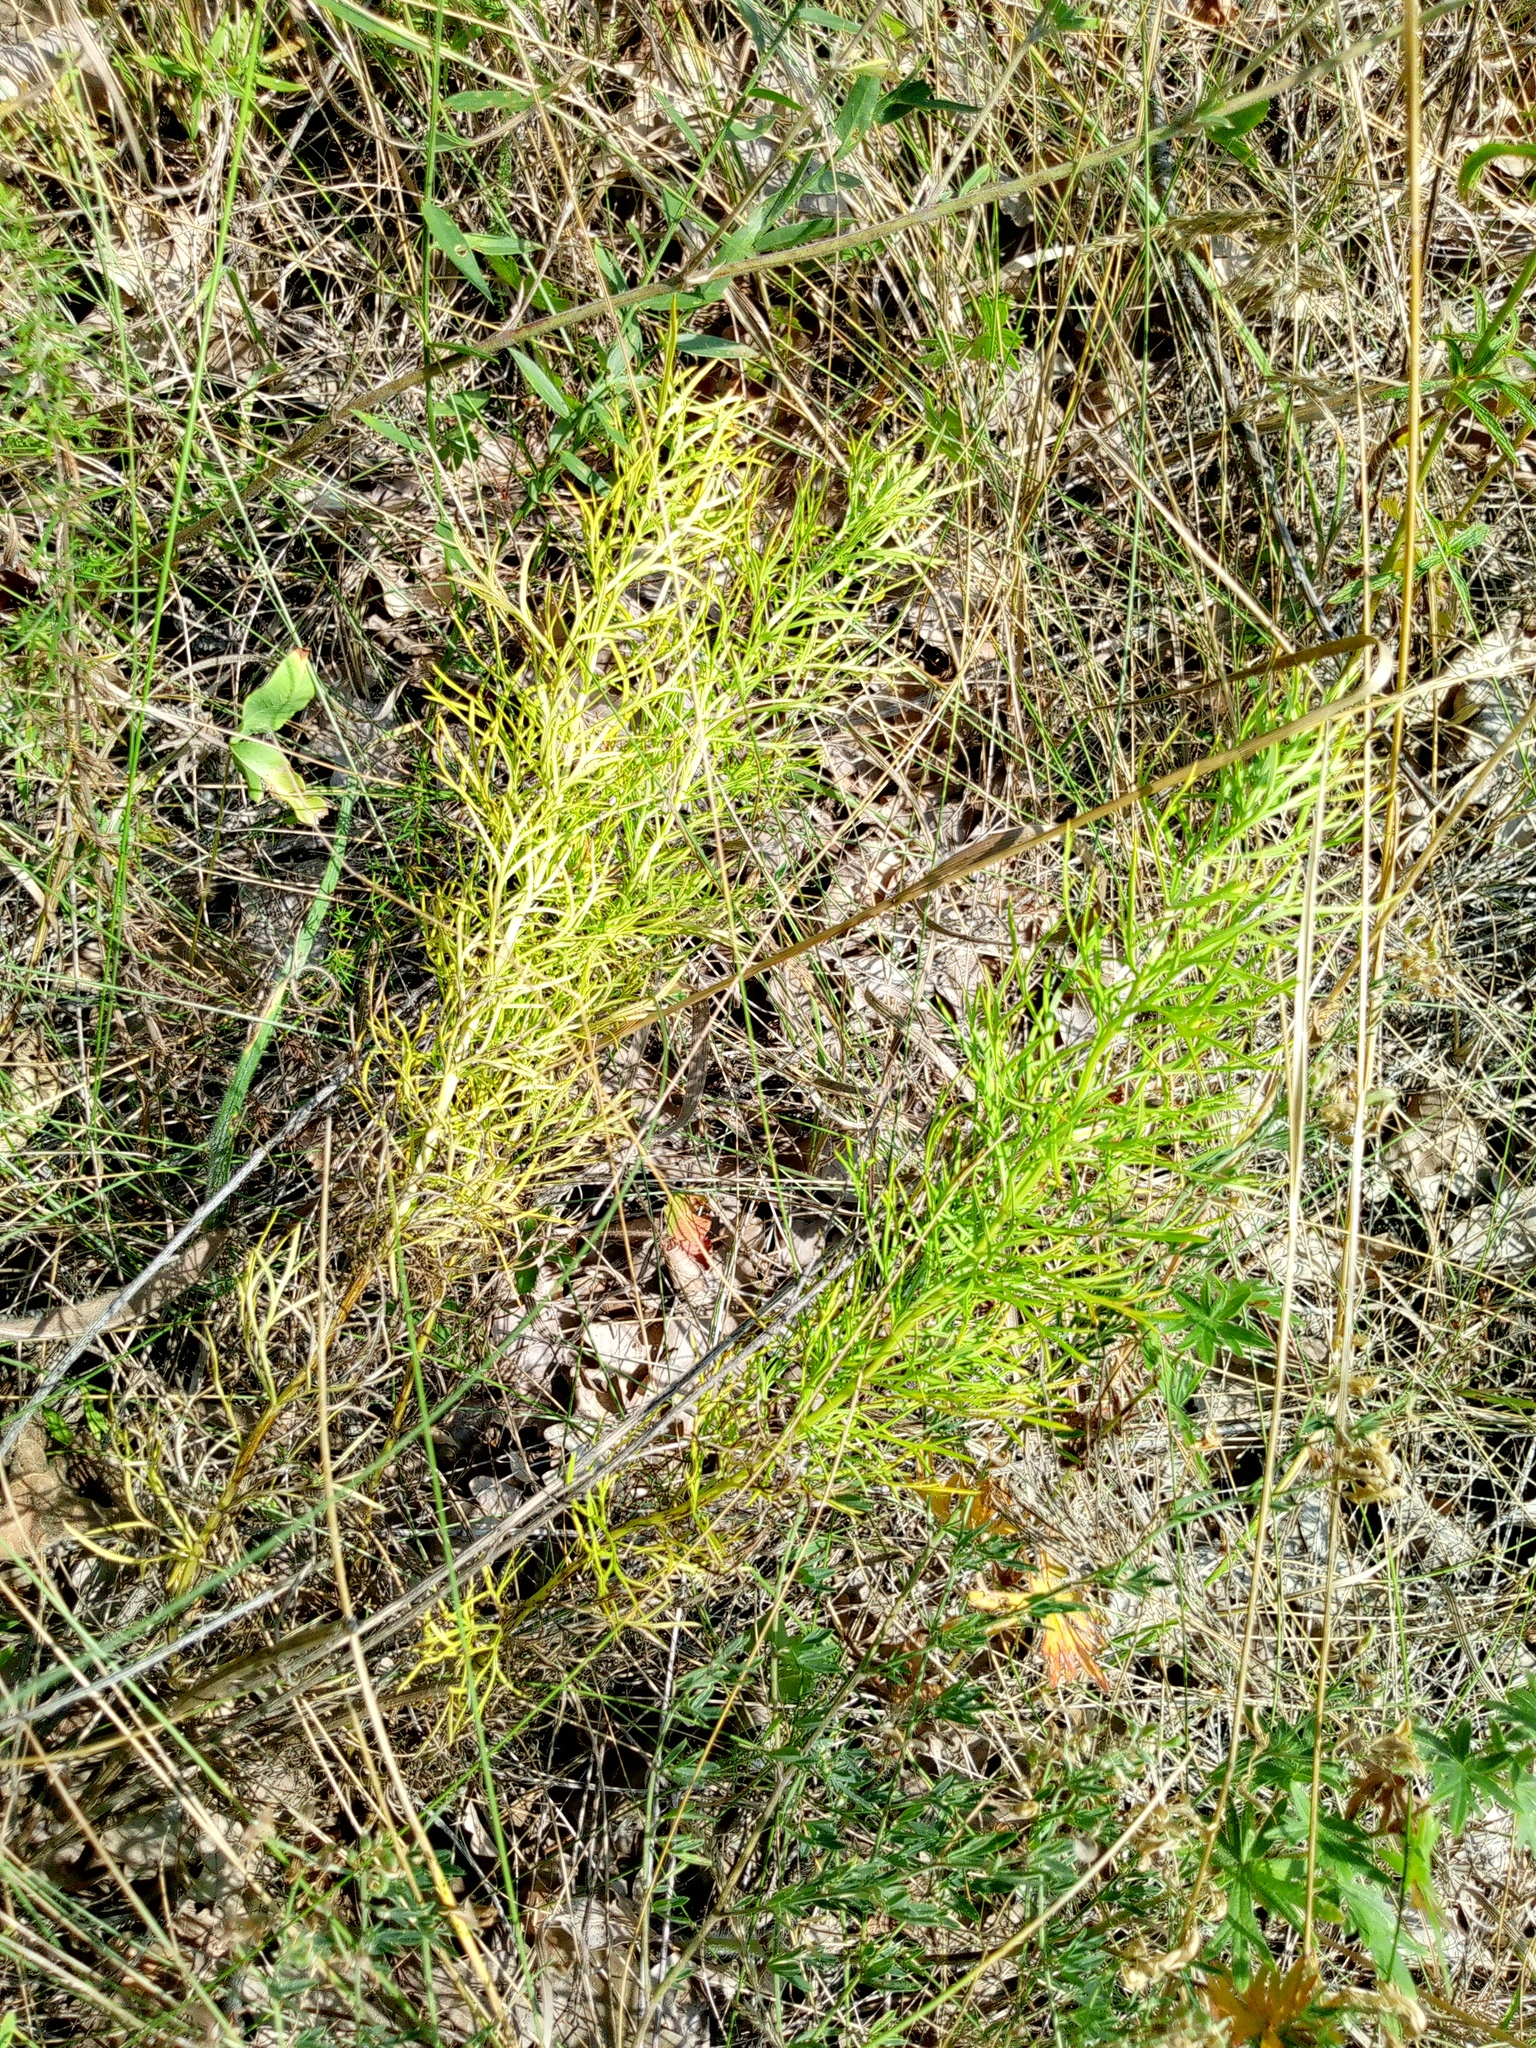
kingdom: Plantae
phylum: Tracheophyta
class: Magnoliopsida
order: Ranunculales
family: Ranunculaceae
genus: Adonis
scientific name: Adonis vernalis
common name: Yellow pheasants-eye
